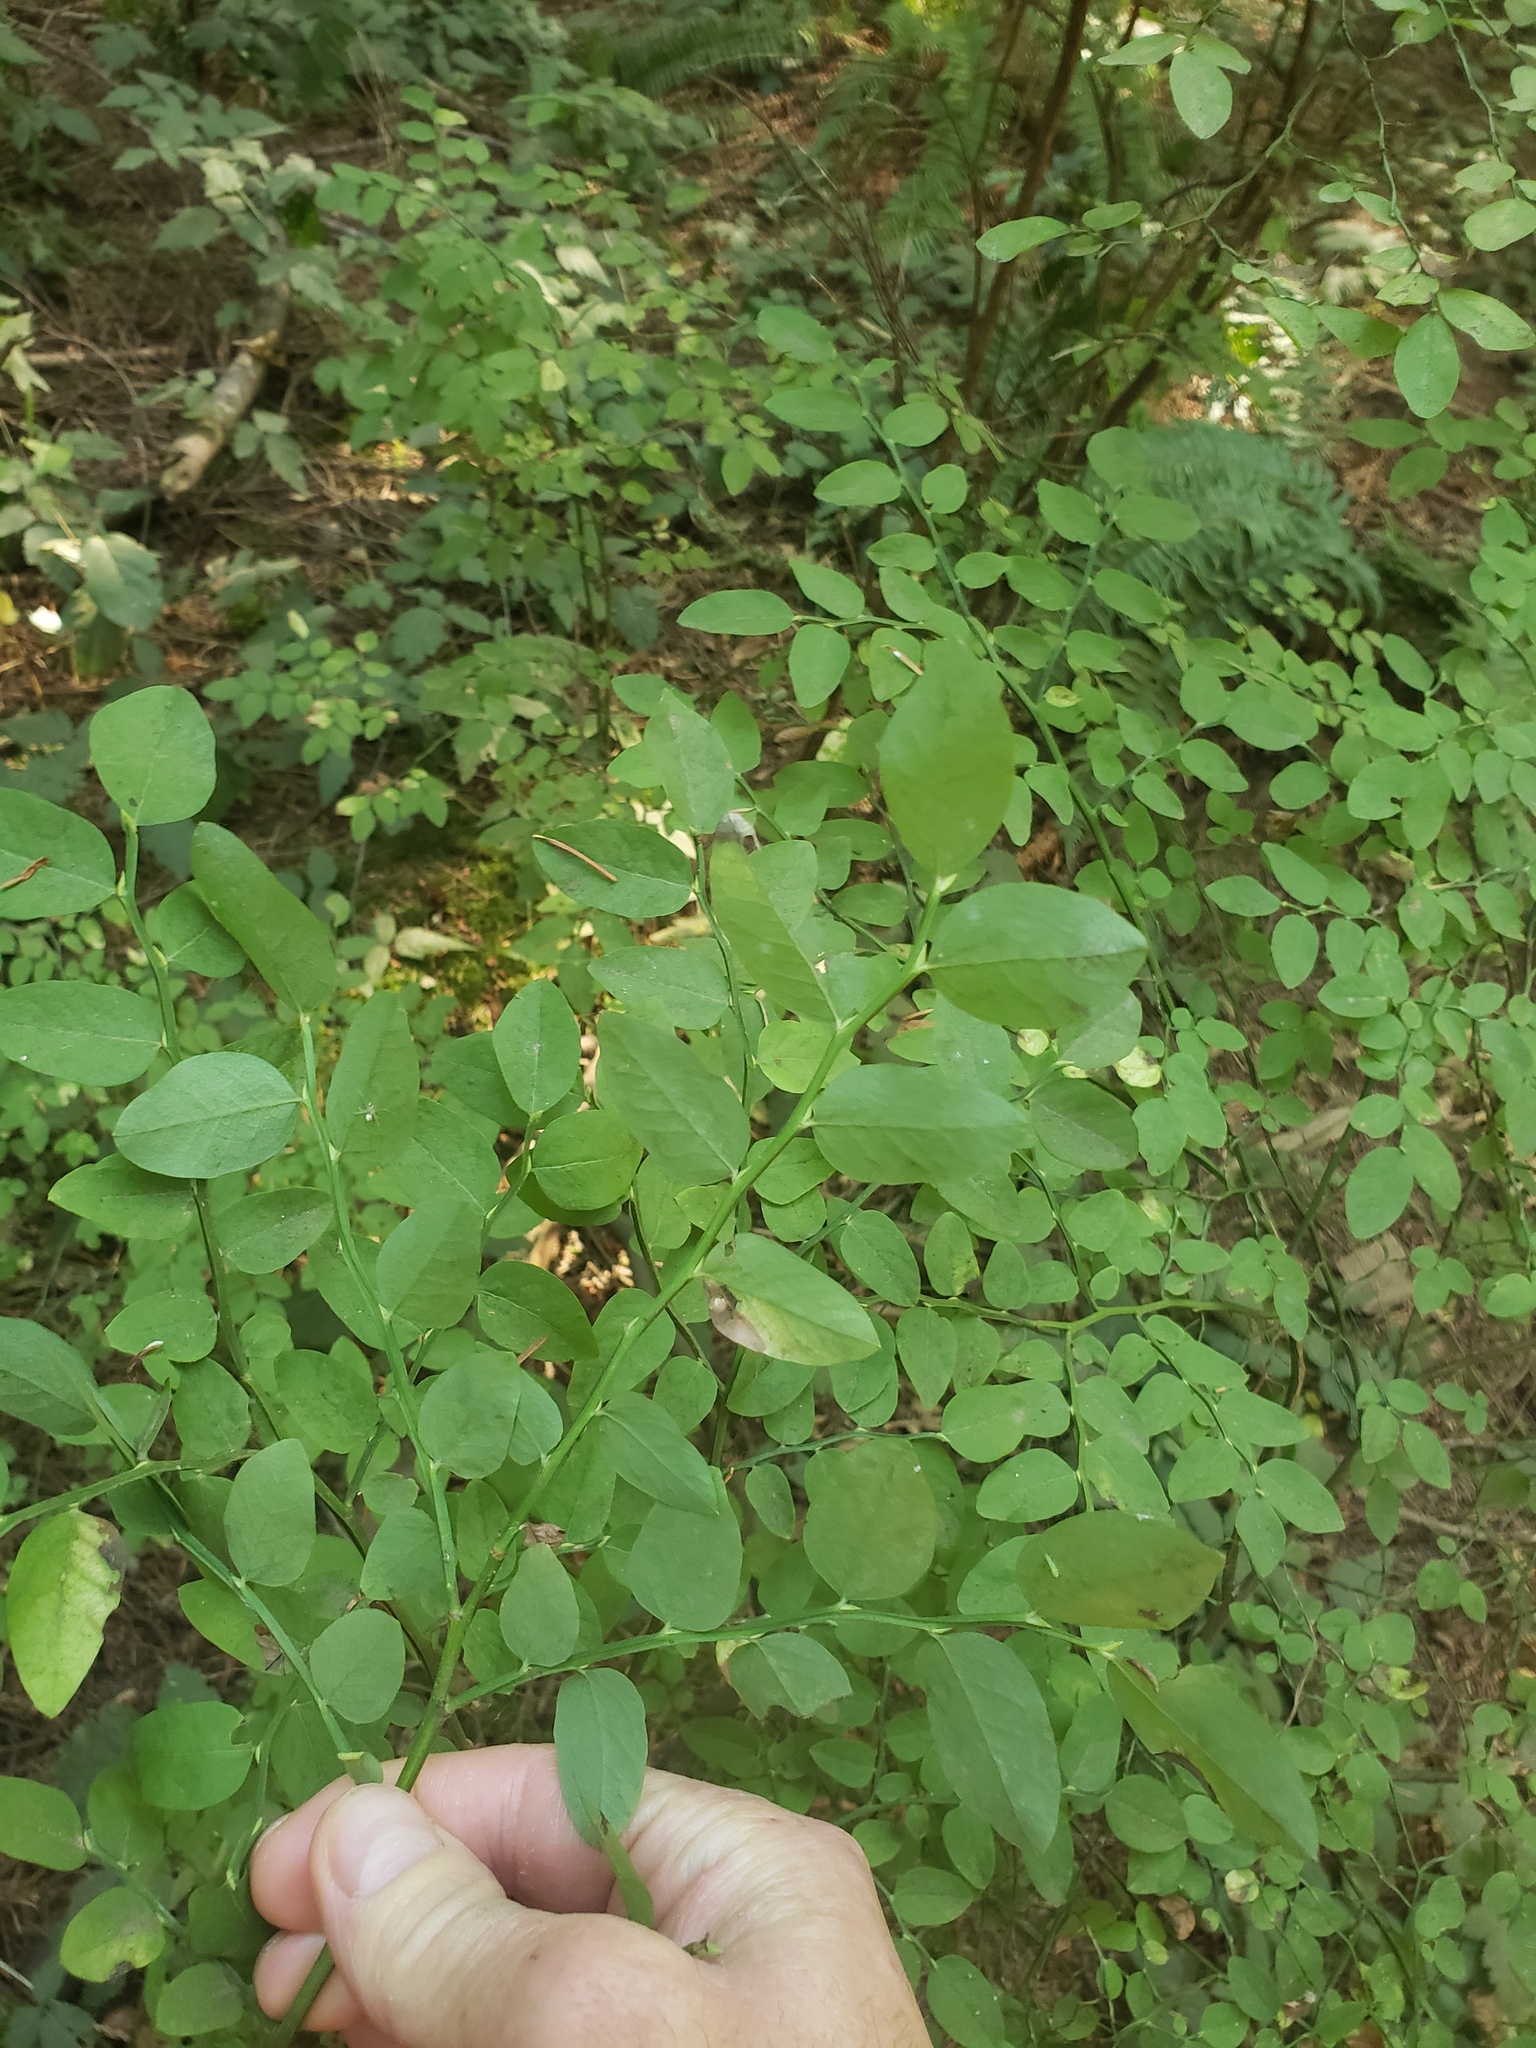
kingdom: Plantae
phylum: Tracheophyta
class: Magnoliopsida
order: Ericales
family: Ericaceae
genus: Vaccinium
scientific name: Vaccinium parvifolium
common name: Red-huckleberry
